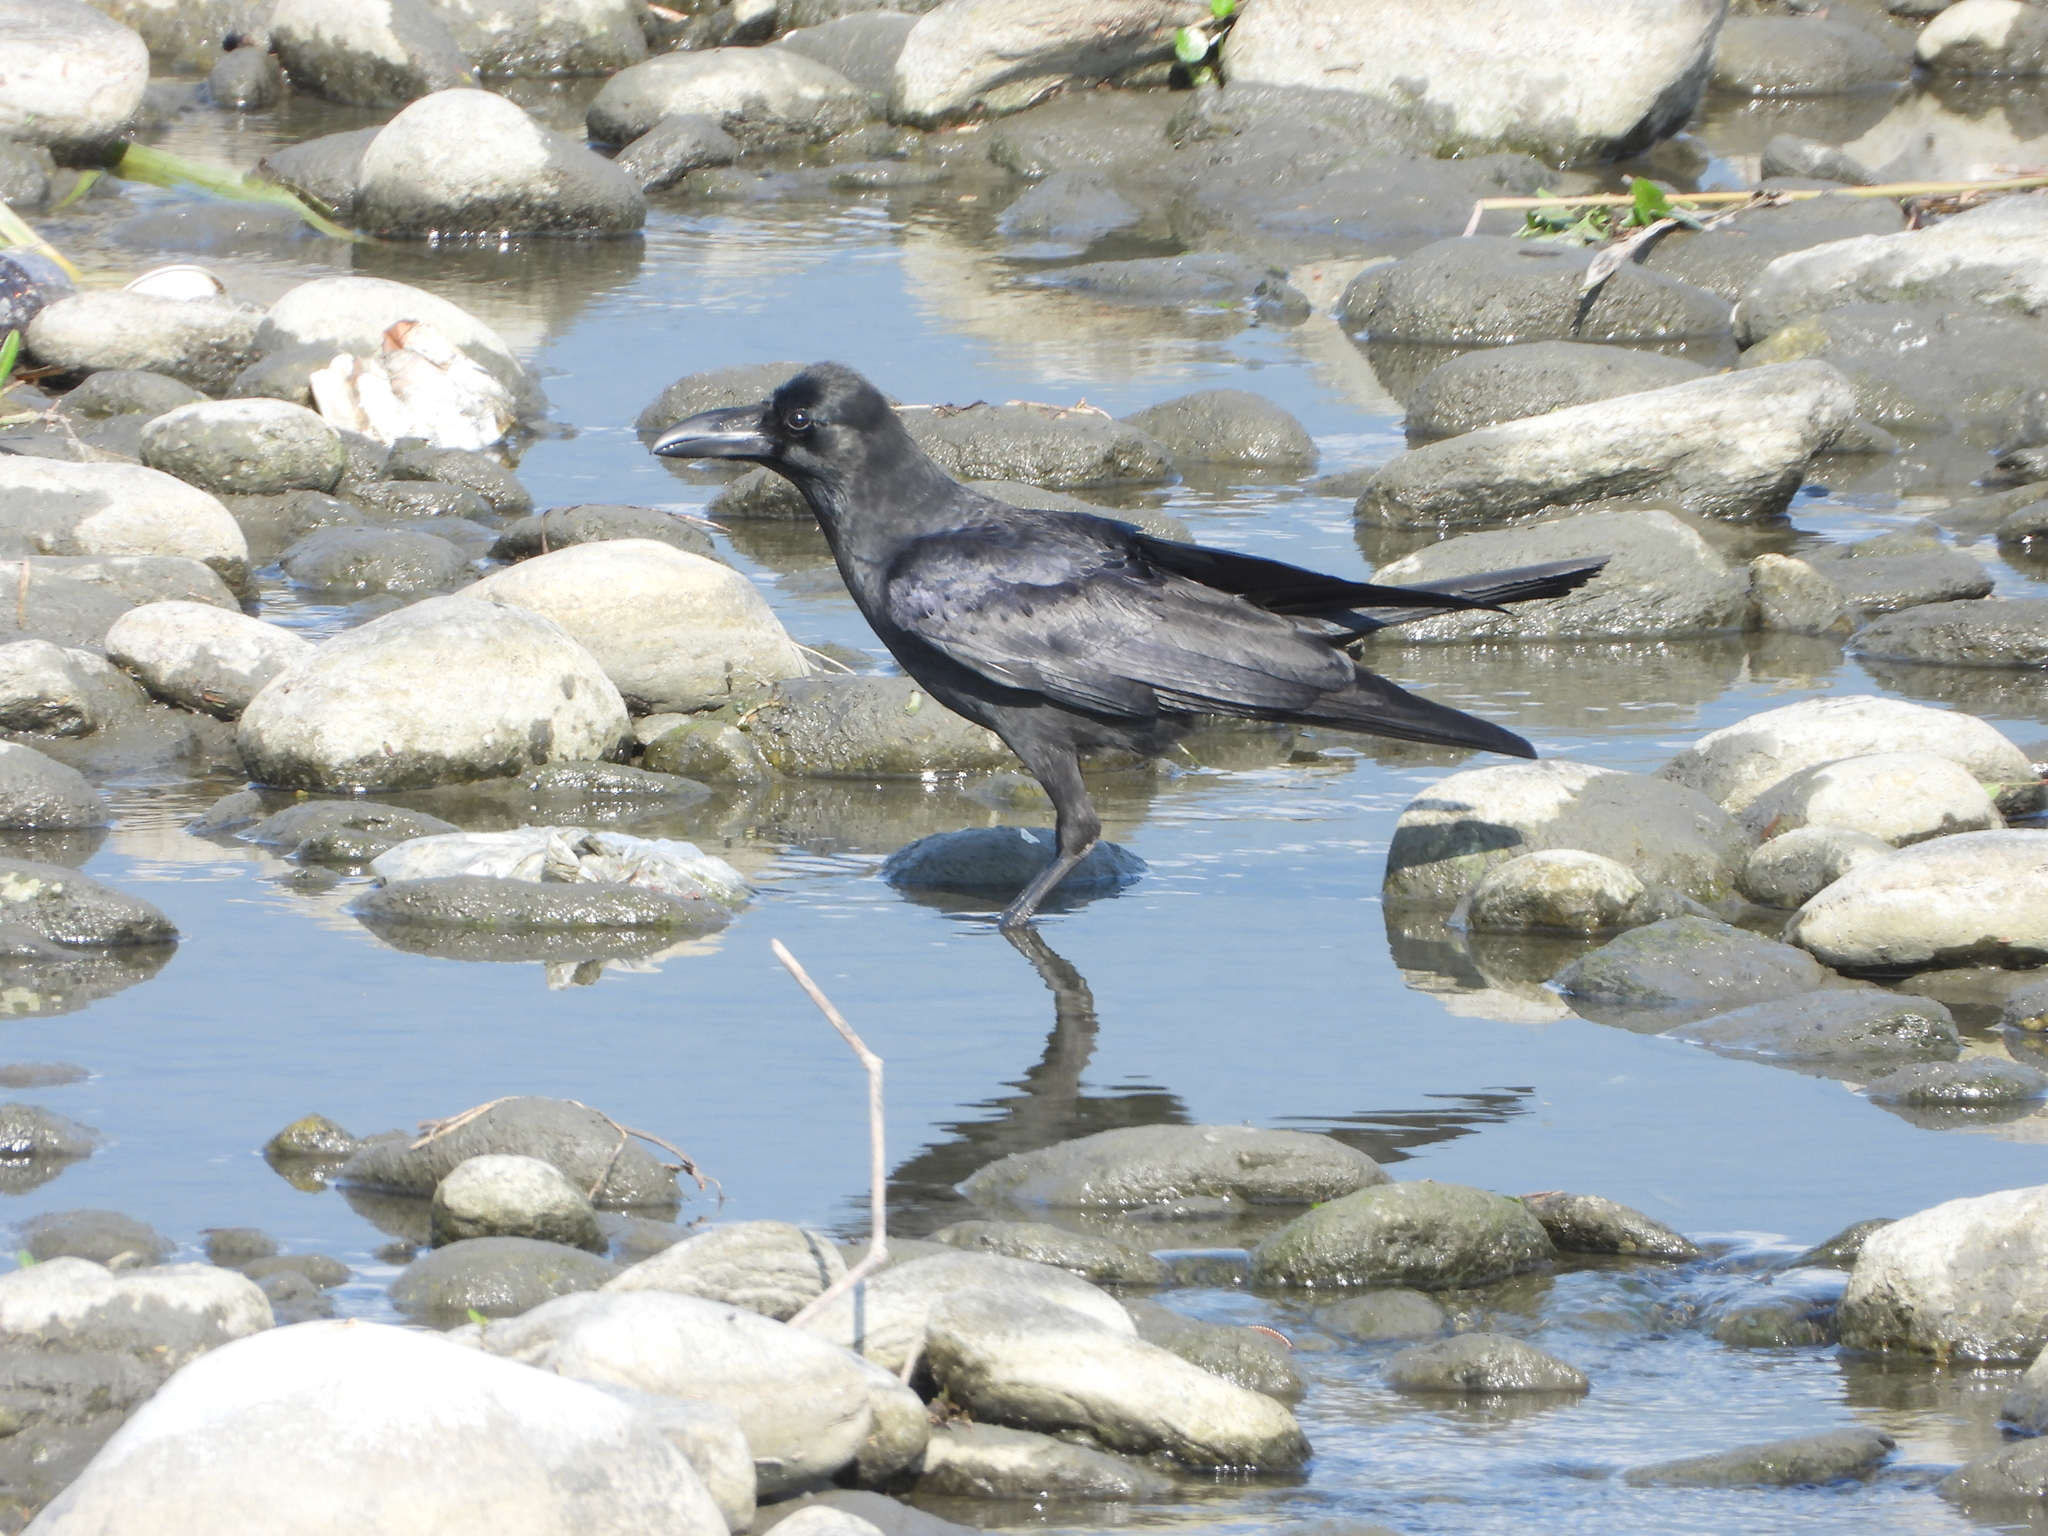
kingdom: Animalia
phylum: Chordata
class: Aves
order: Passeriformes
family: Corvidae
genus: Corvus
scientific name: Corvus macrorhynchos
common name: Large-billed crow
